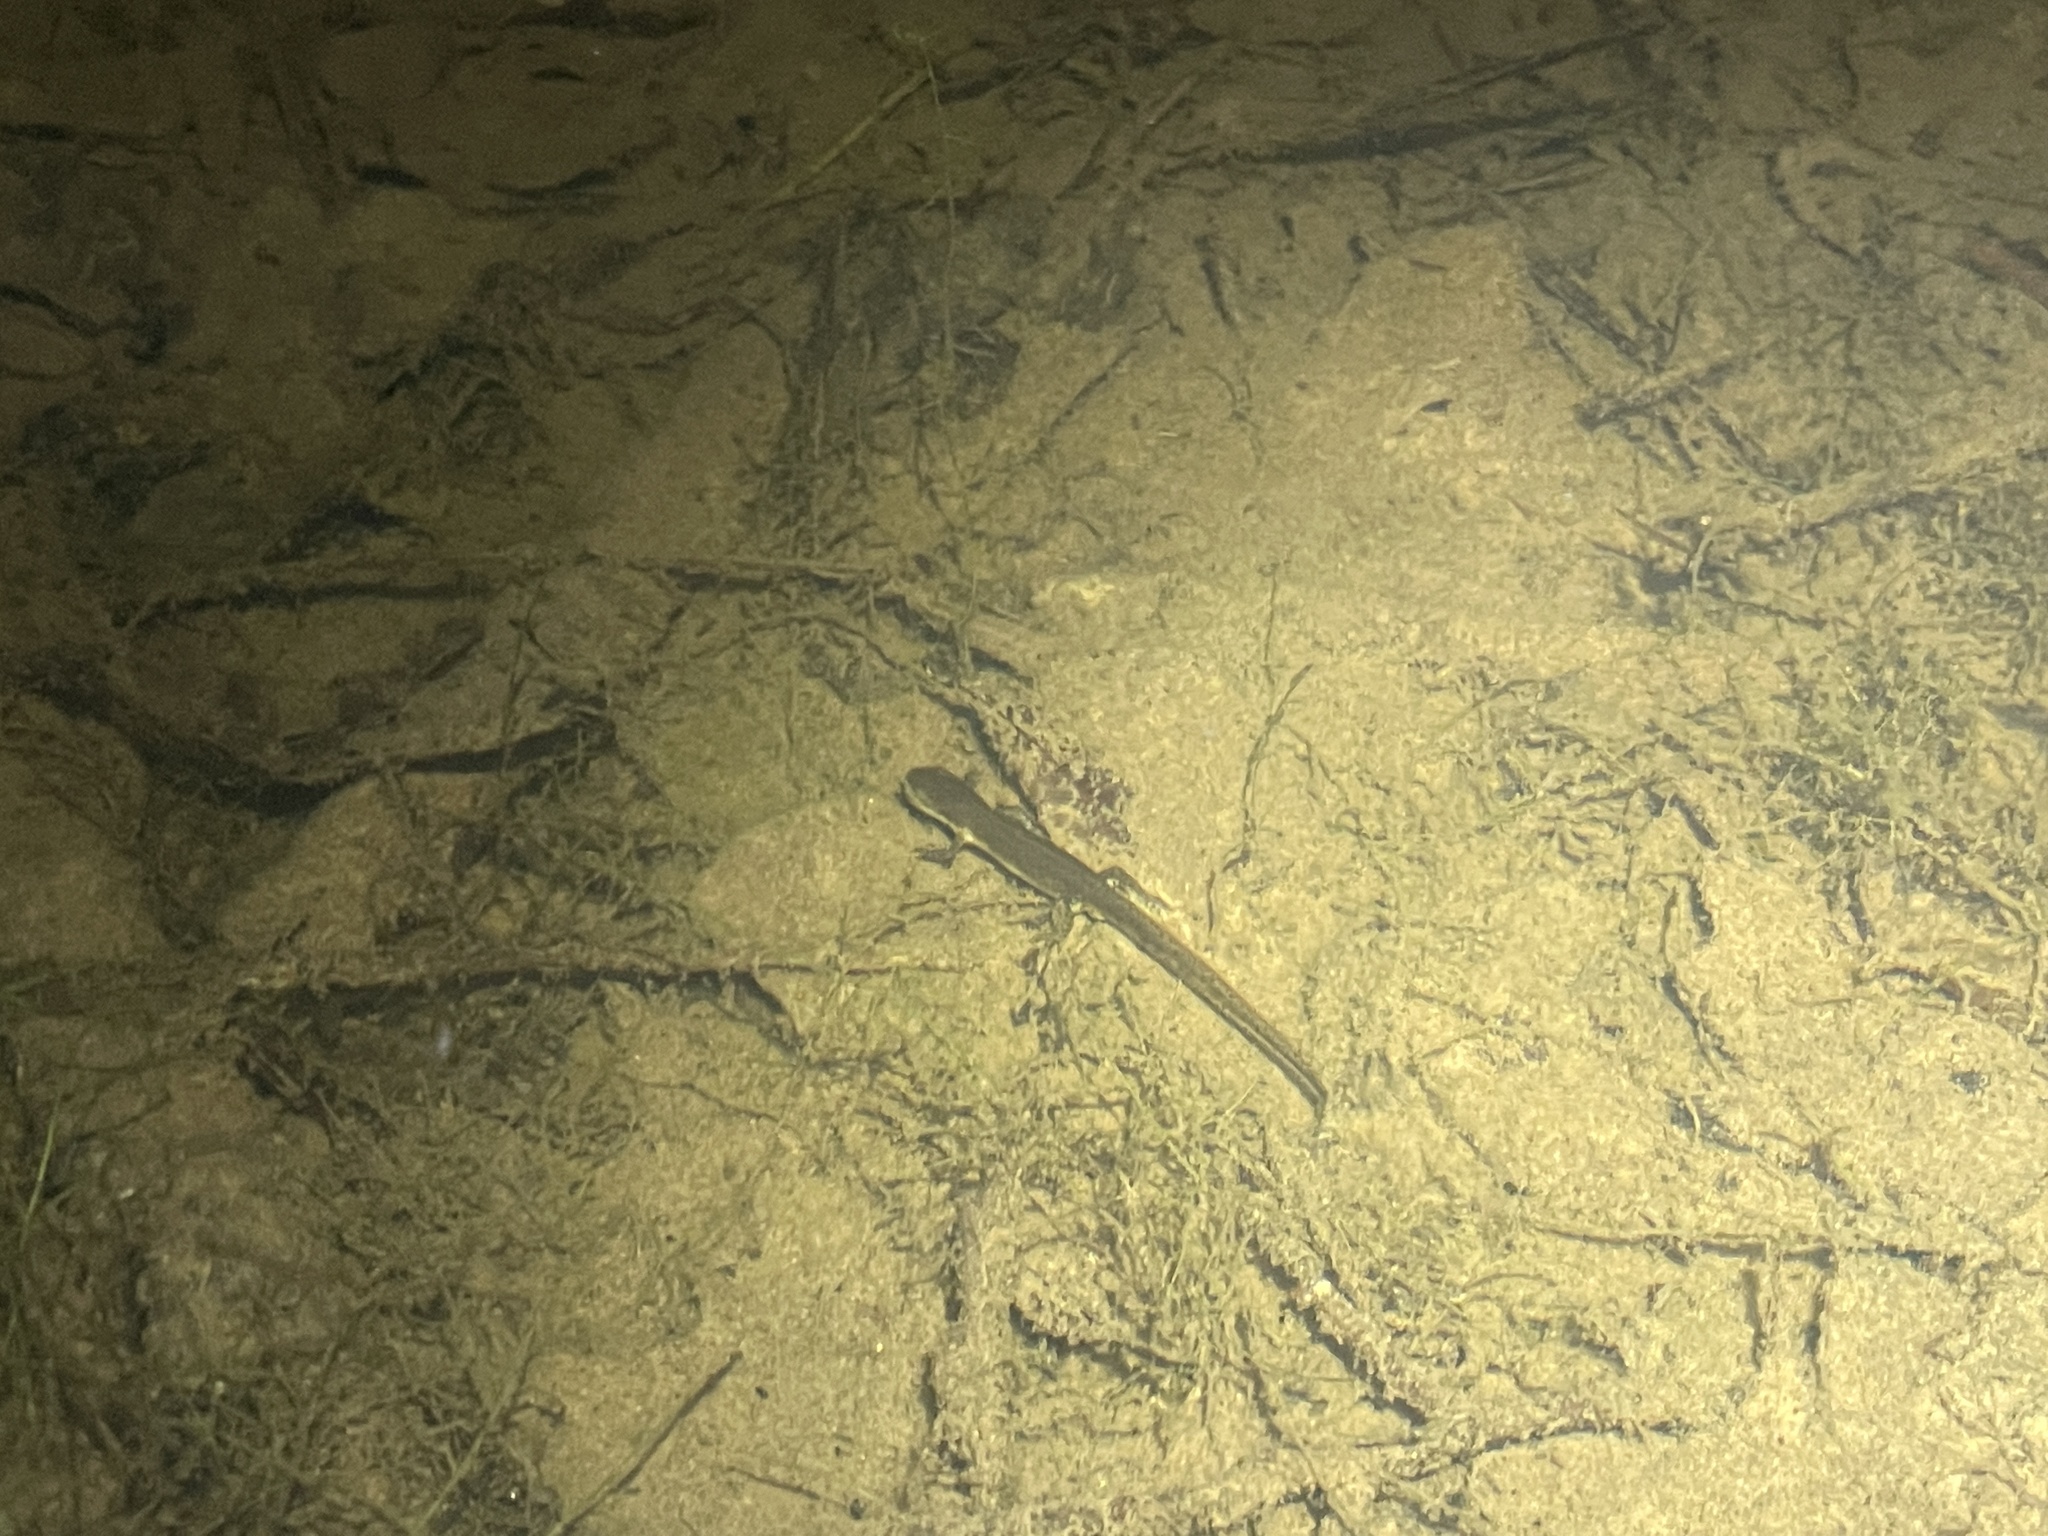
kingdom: Animalia
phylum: Chordata
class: Amphibia
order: Caudata
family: Salamandridae
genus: Notophthalmus
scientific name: Notophthalmus viridescens
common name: Eastern newt
